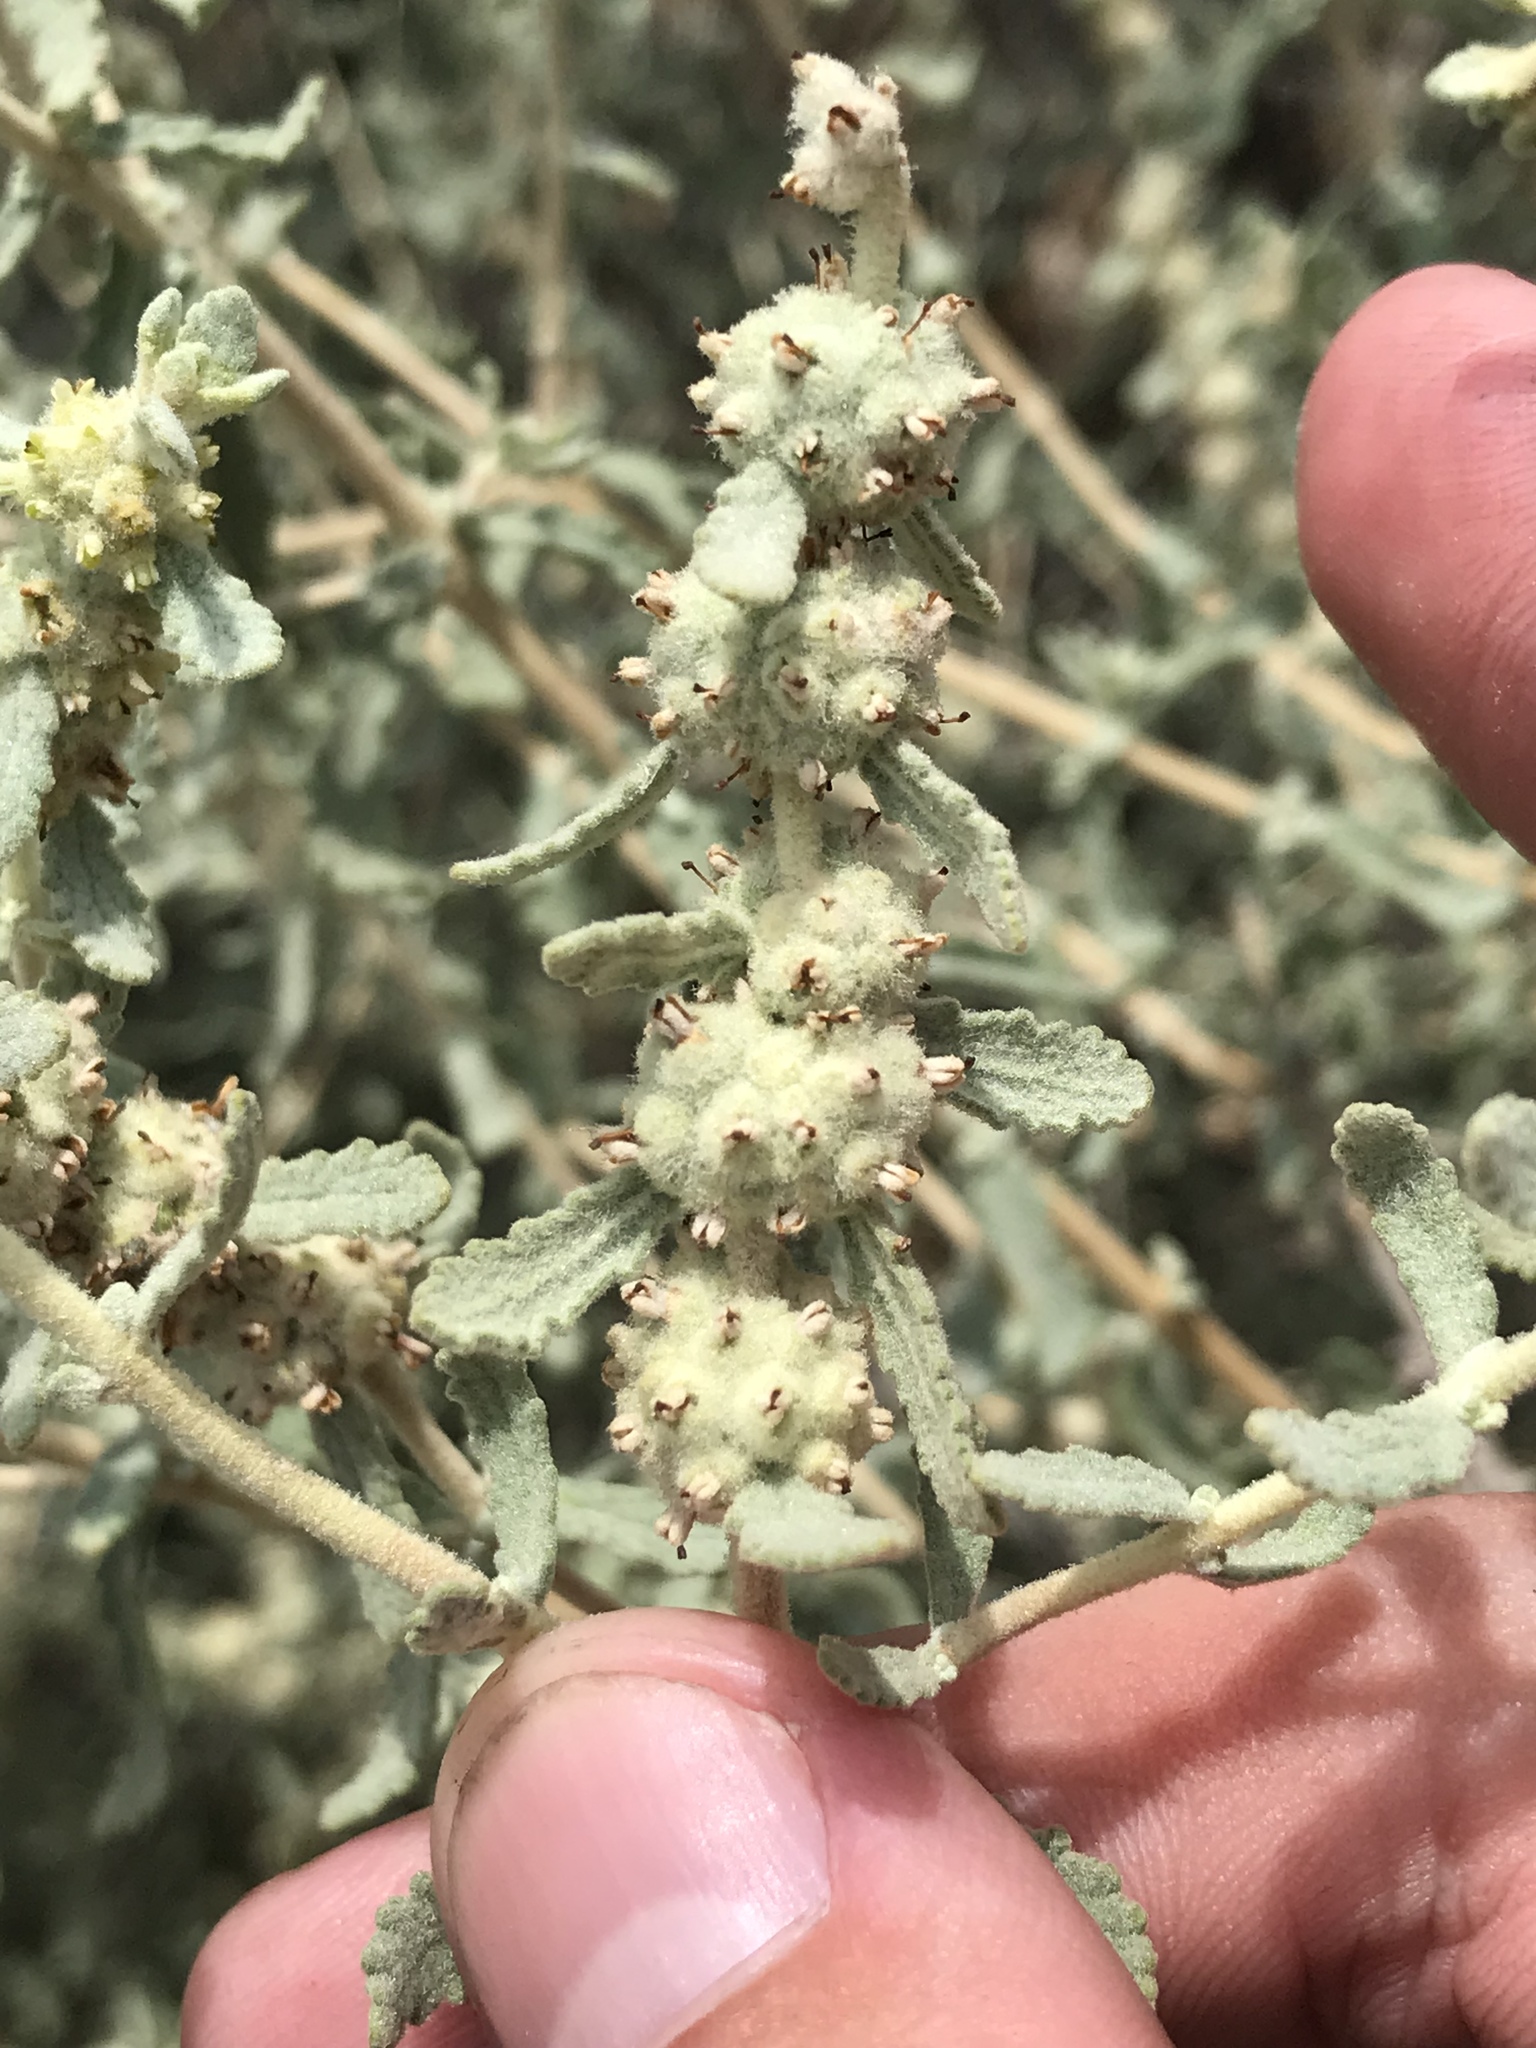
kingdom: Plantae
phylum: Tracheophyta
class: Magnoliopsida
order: Lamiales
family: Scrophulariaceae
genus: Buddleja
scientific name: Buddleja scordioides
